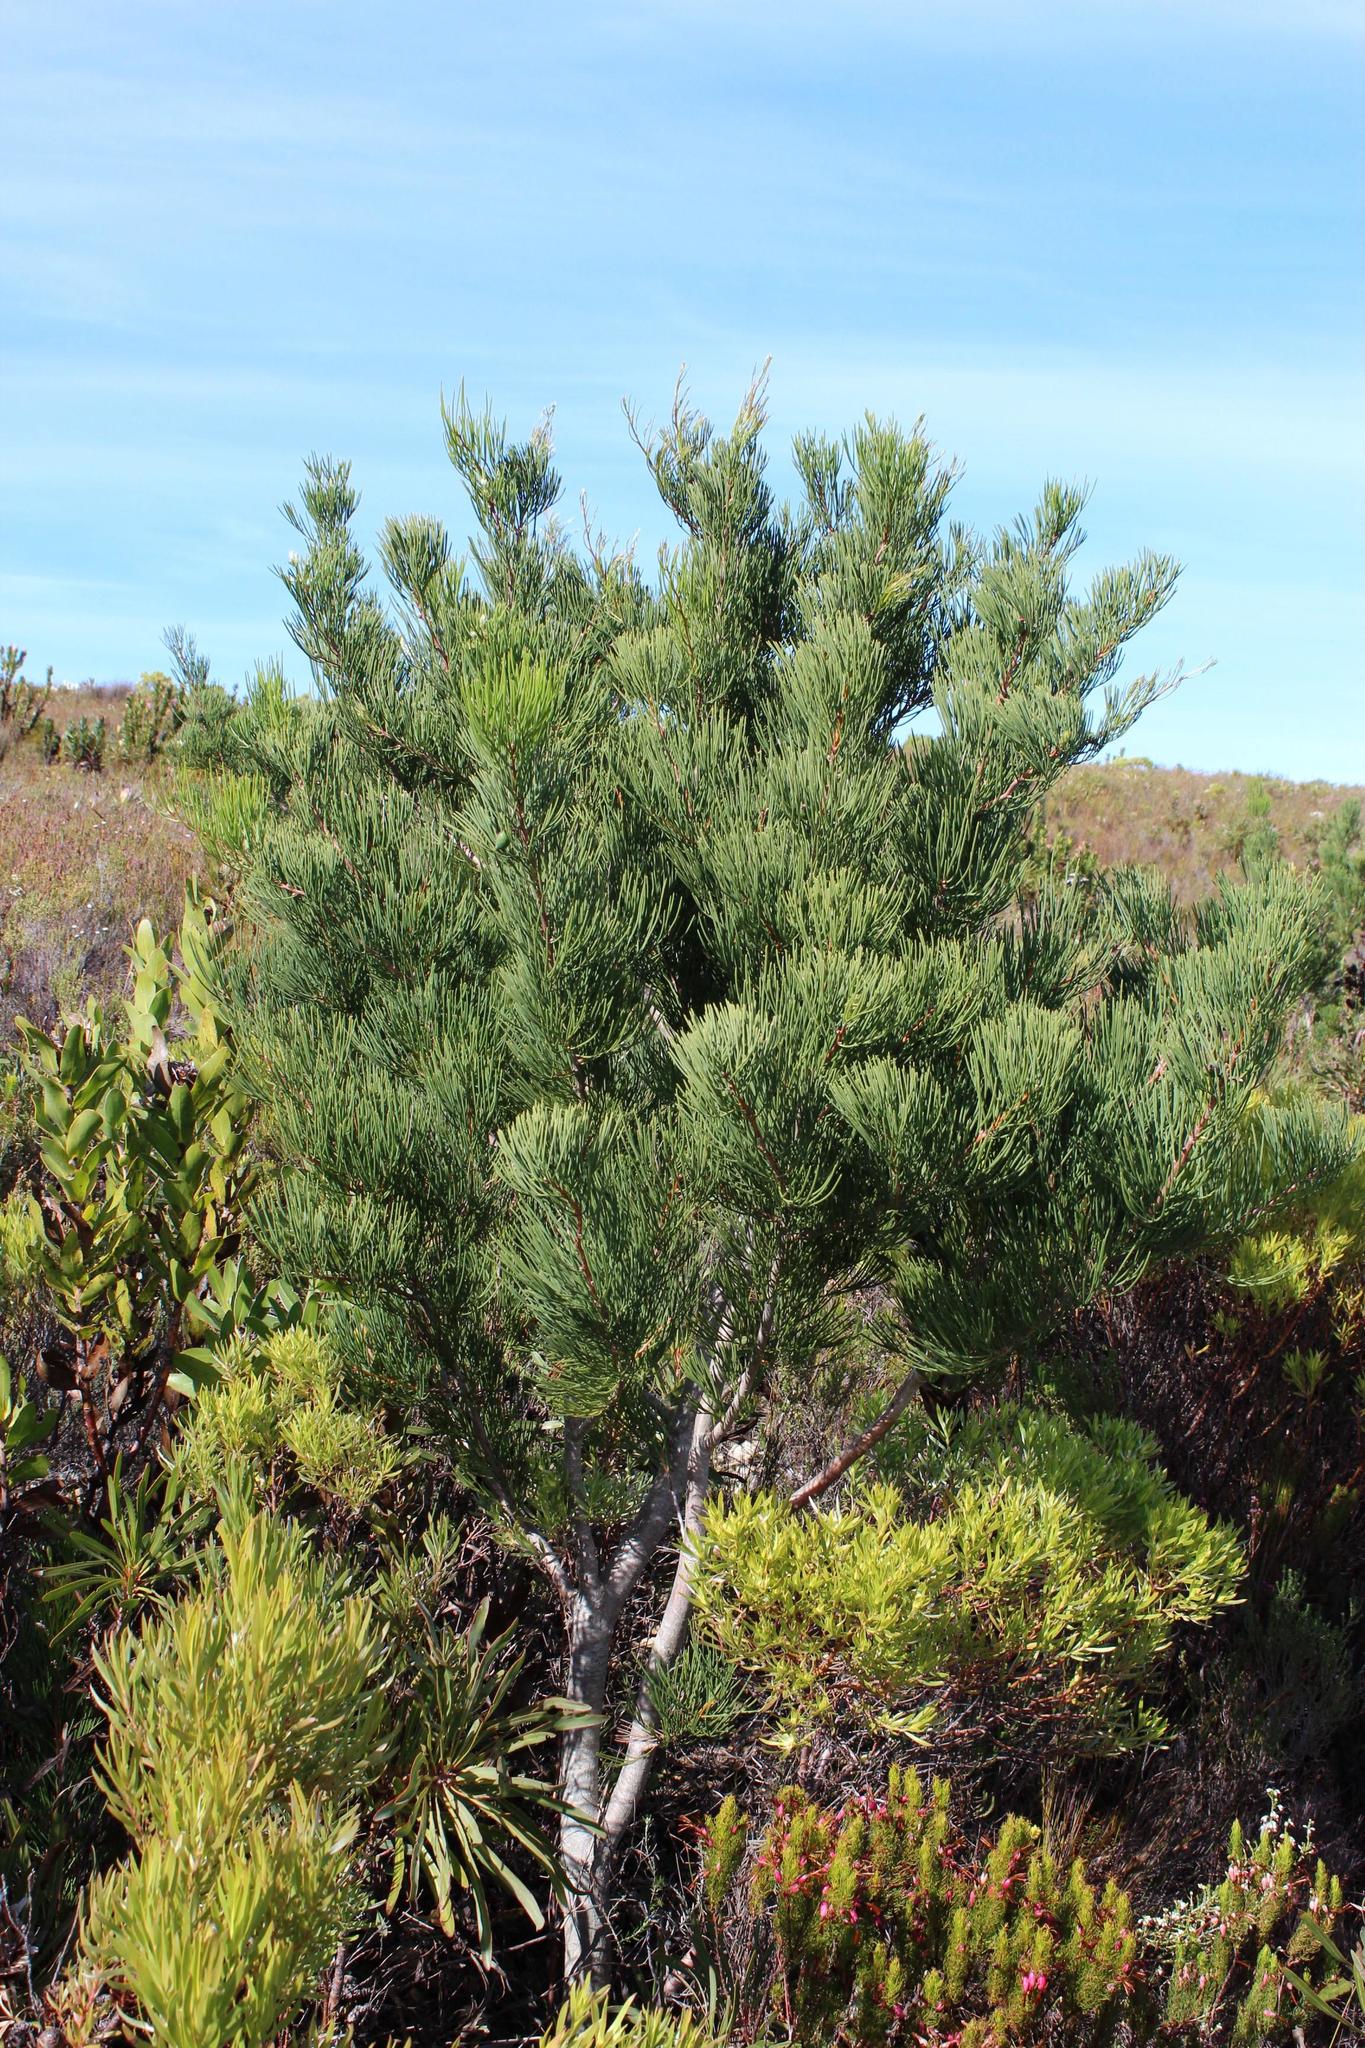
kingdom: Plantae
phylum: Tracheophyta
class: Magnoliopsida
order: Proteales
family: Proteaceae
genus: Hakea
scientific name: Hakea drupacea
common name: Sweet hakea
